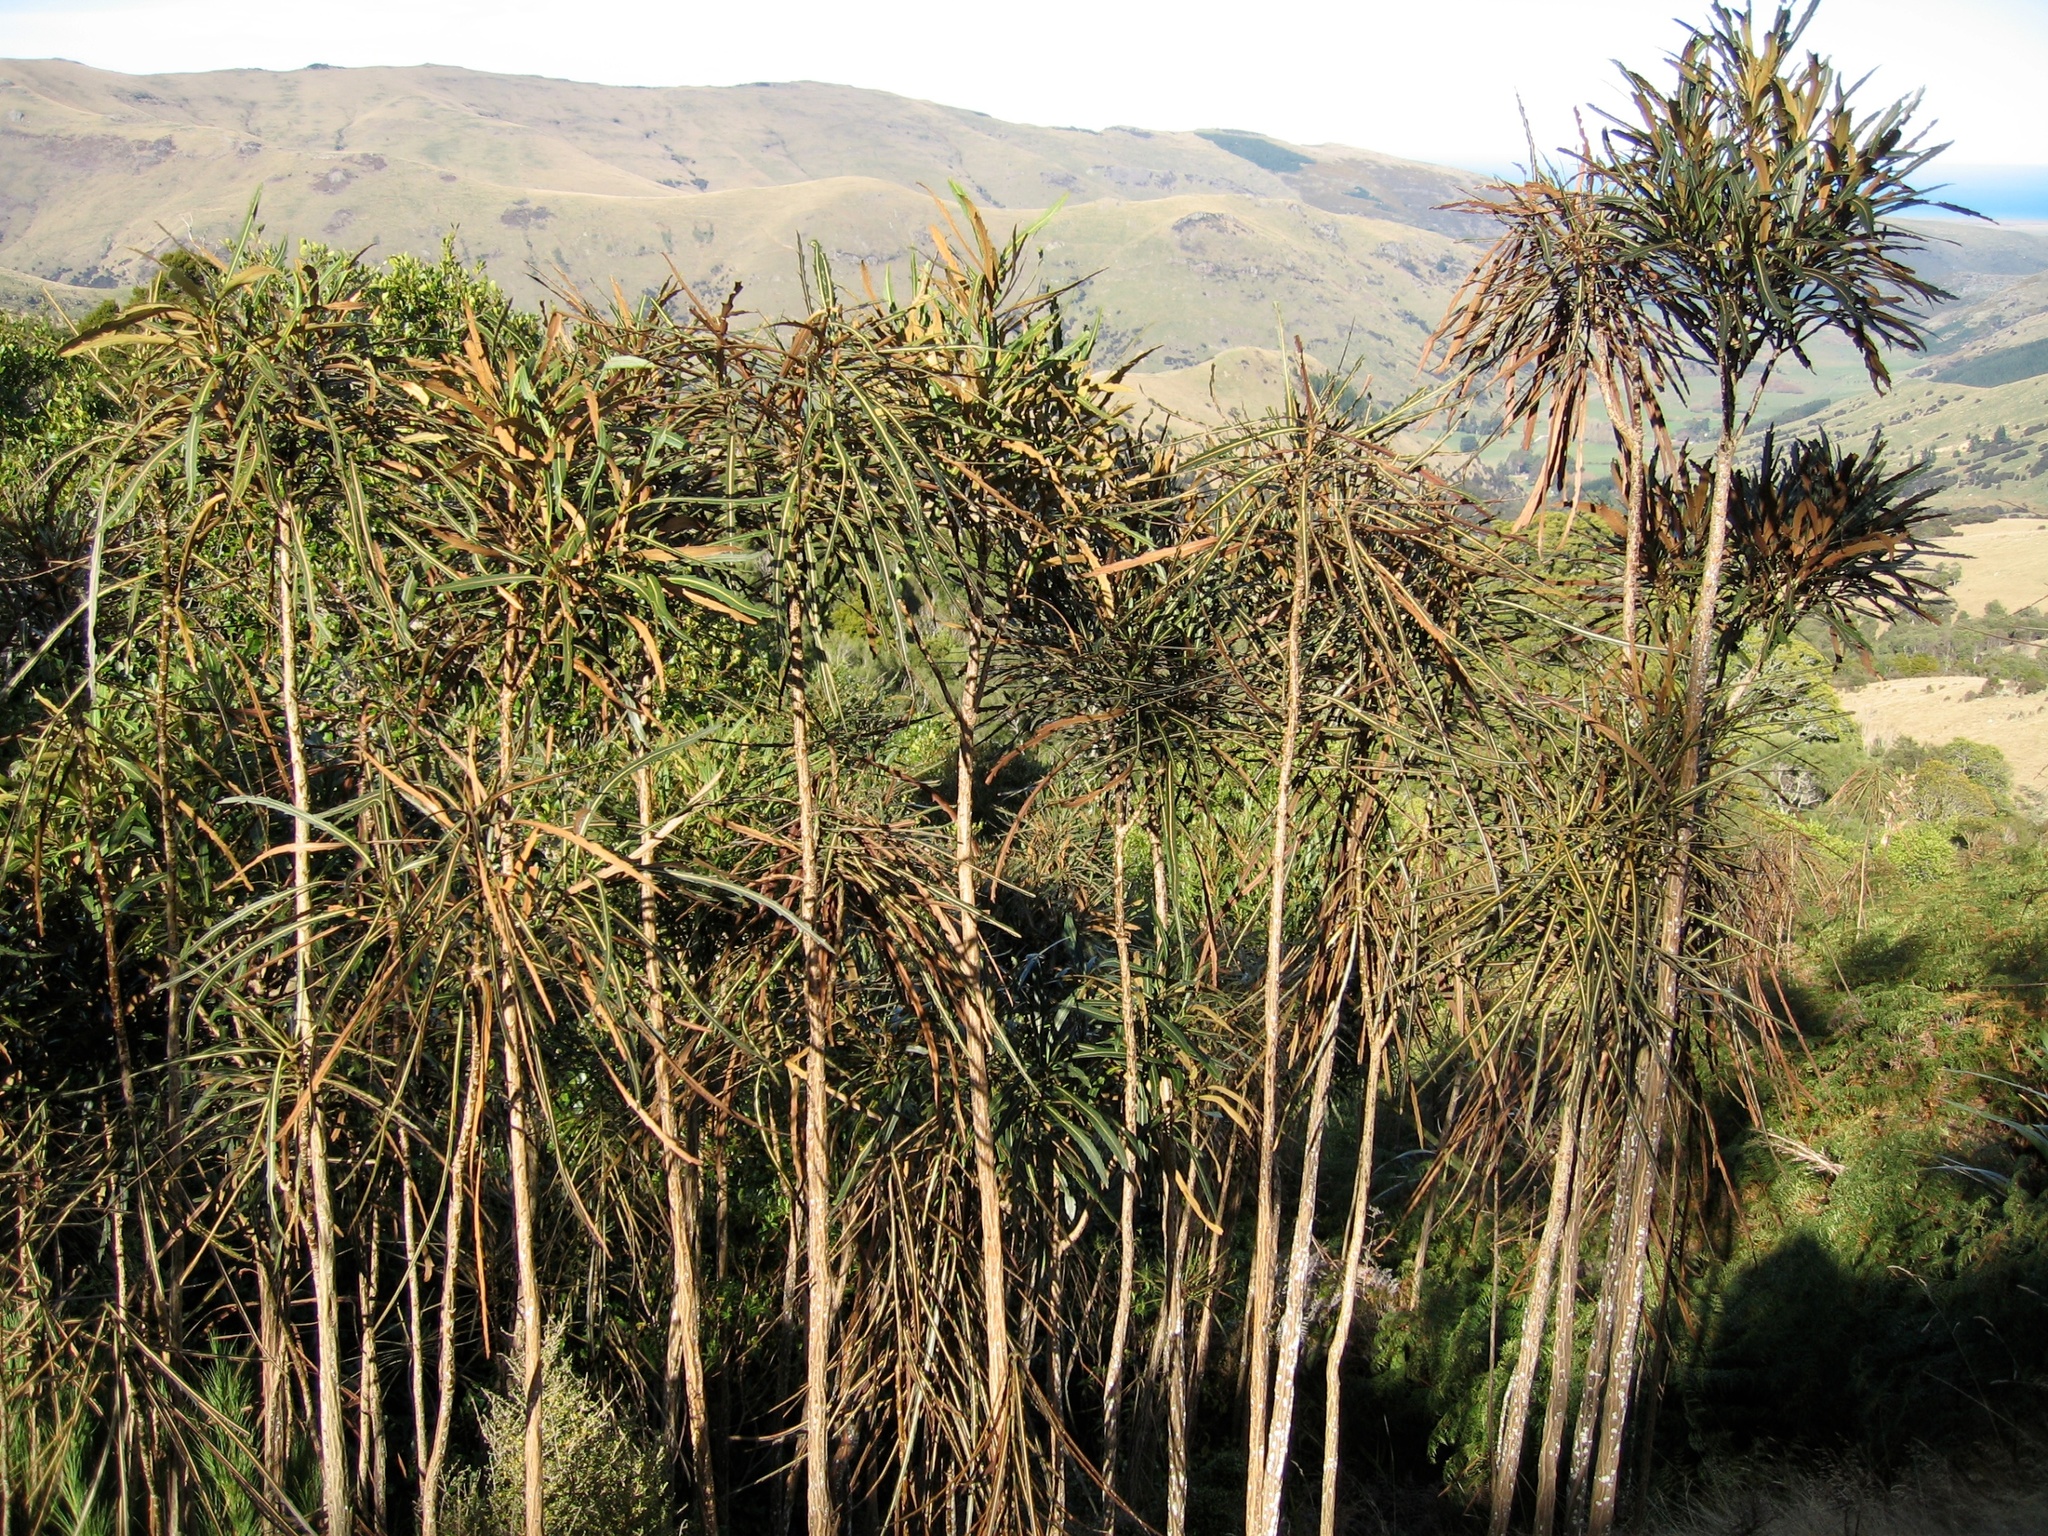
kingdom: Plantae
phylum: Tracheophyta
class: Magnoliopsida
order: Apiales
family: Araliaceae
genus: Pseudopanax
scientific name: Pseudopanax crassifolius
